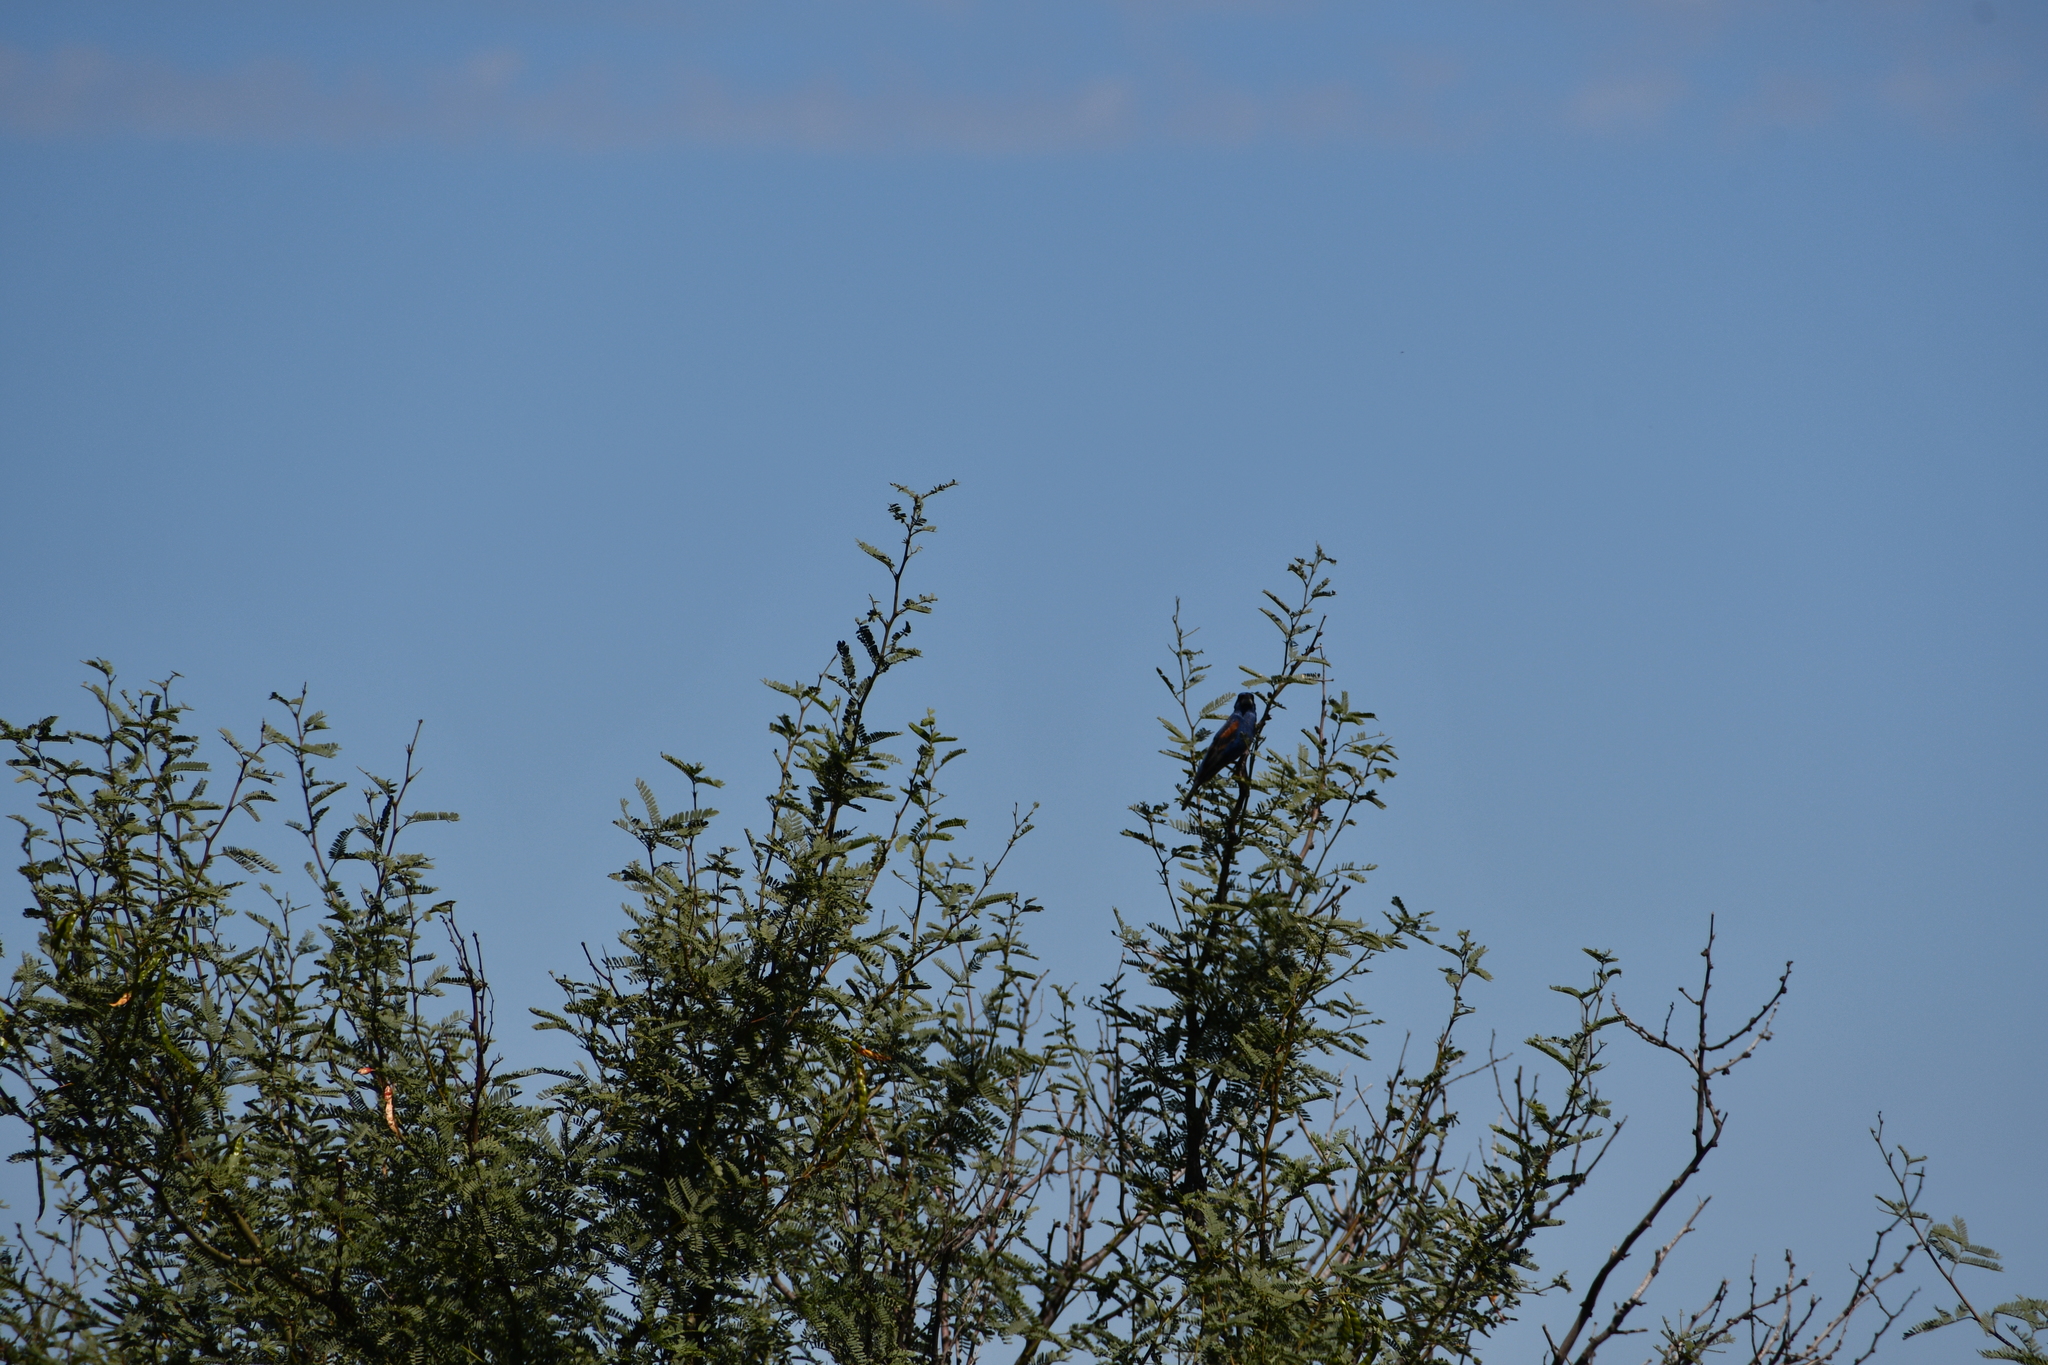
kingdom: Animalia
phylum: Chordata
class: Aves
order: Passeriformes
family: Cardinalidae
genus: Passerina
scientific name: Passerina caerulea
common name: Blue grosbeak
